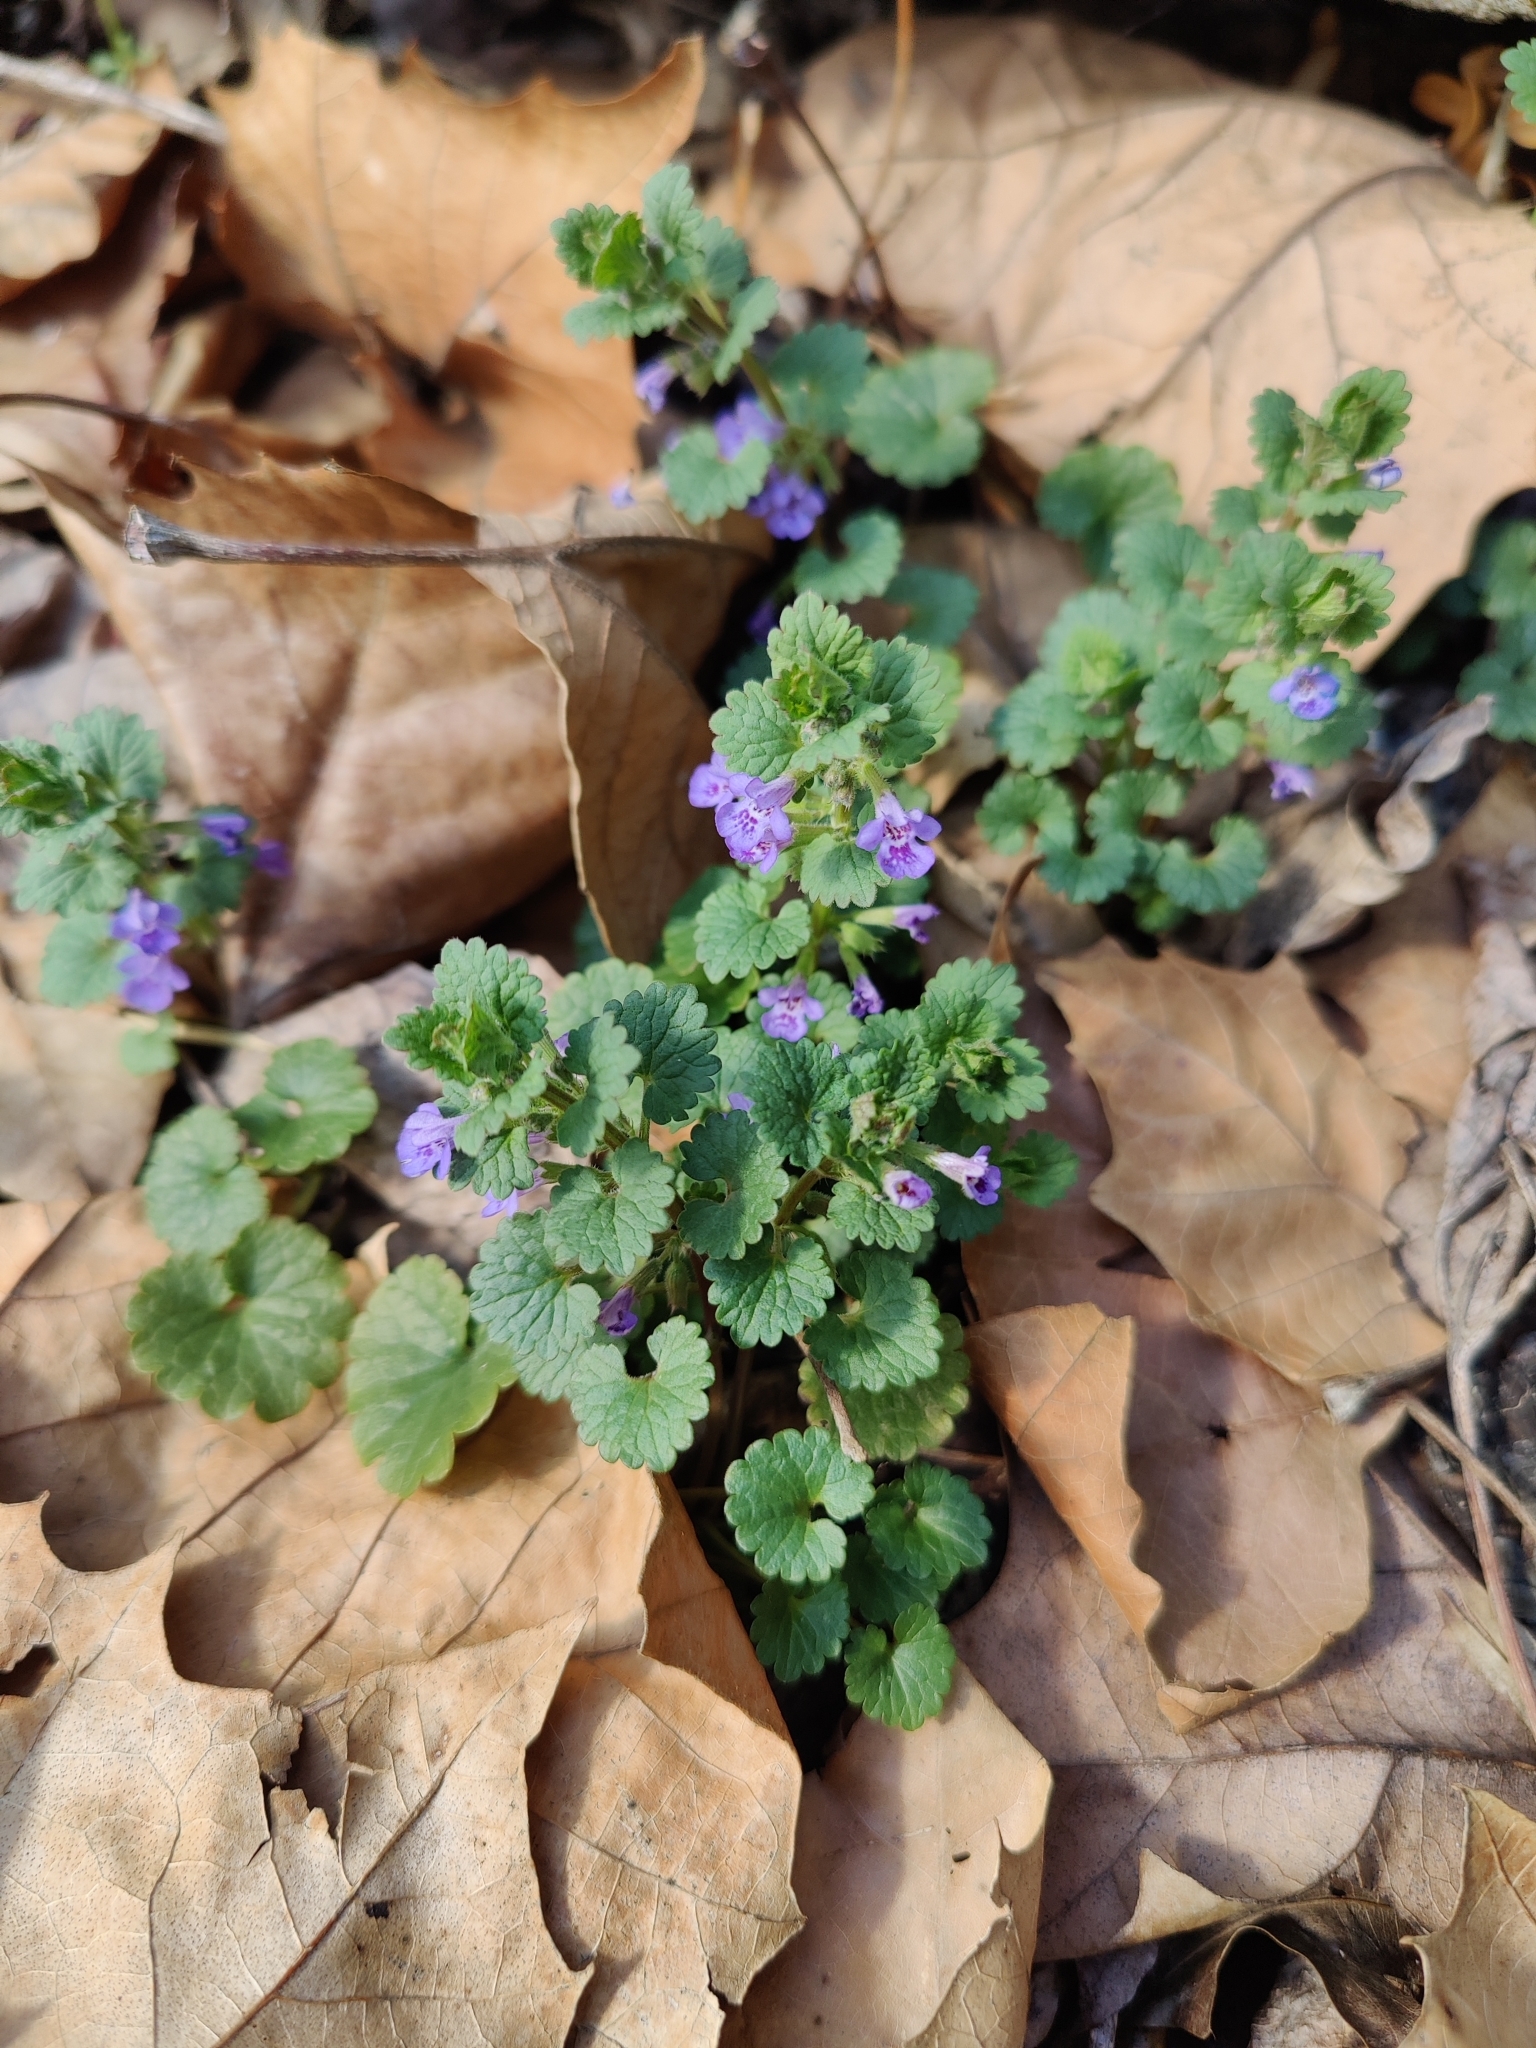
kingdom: Plantae
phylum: Tracheophyta
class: Magnoliopsida
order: Lamiales
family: Lamiaceae
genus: Glechoma
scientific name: Glechoma hederacea
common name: Ground ivy
